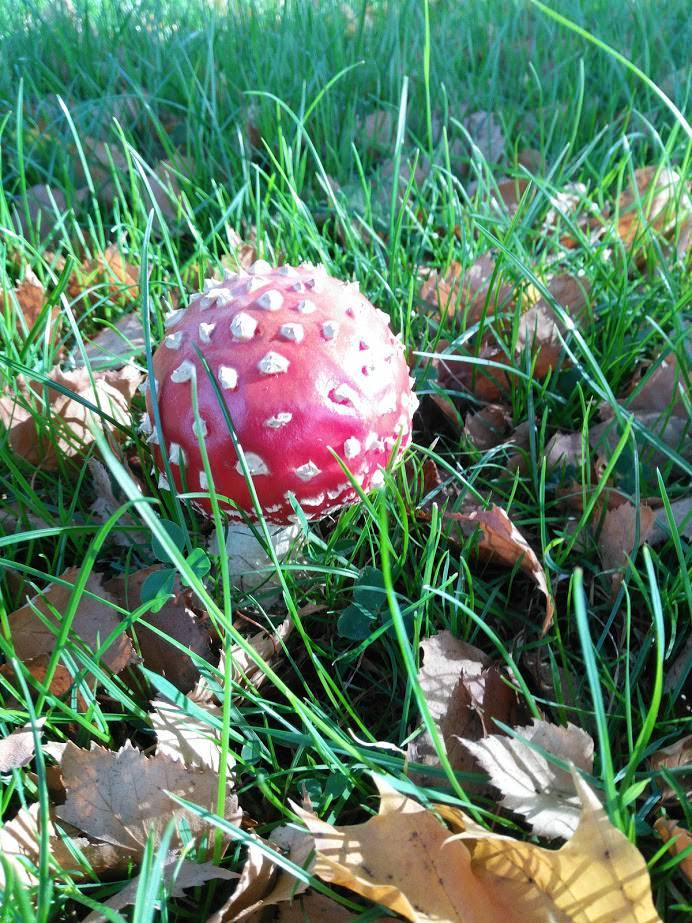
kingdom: Fungi
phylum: Basidiomycota
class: Agaricomycetes
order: Agaricales
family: Amanitaceae
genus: Amanita
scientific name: Amanita muscaria
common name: Fly agaric
